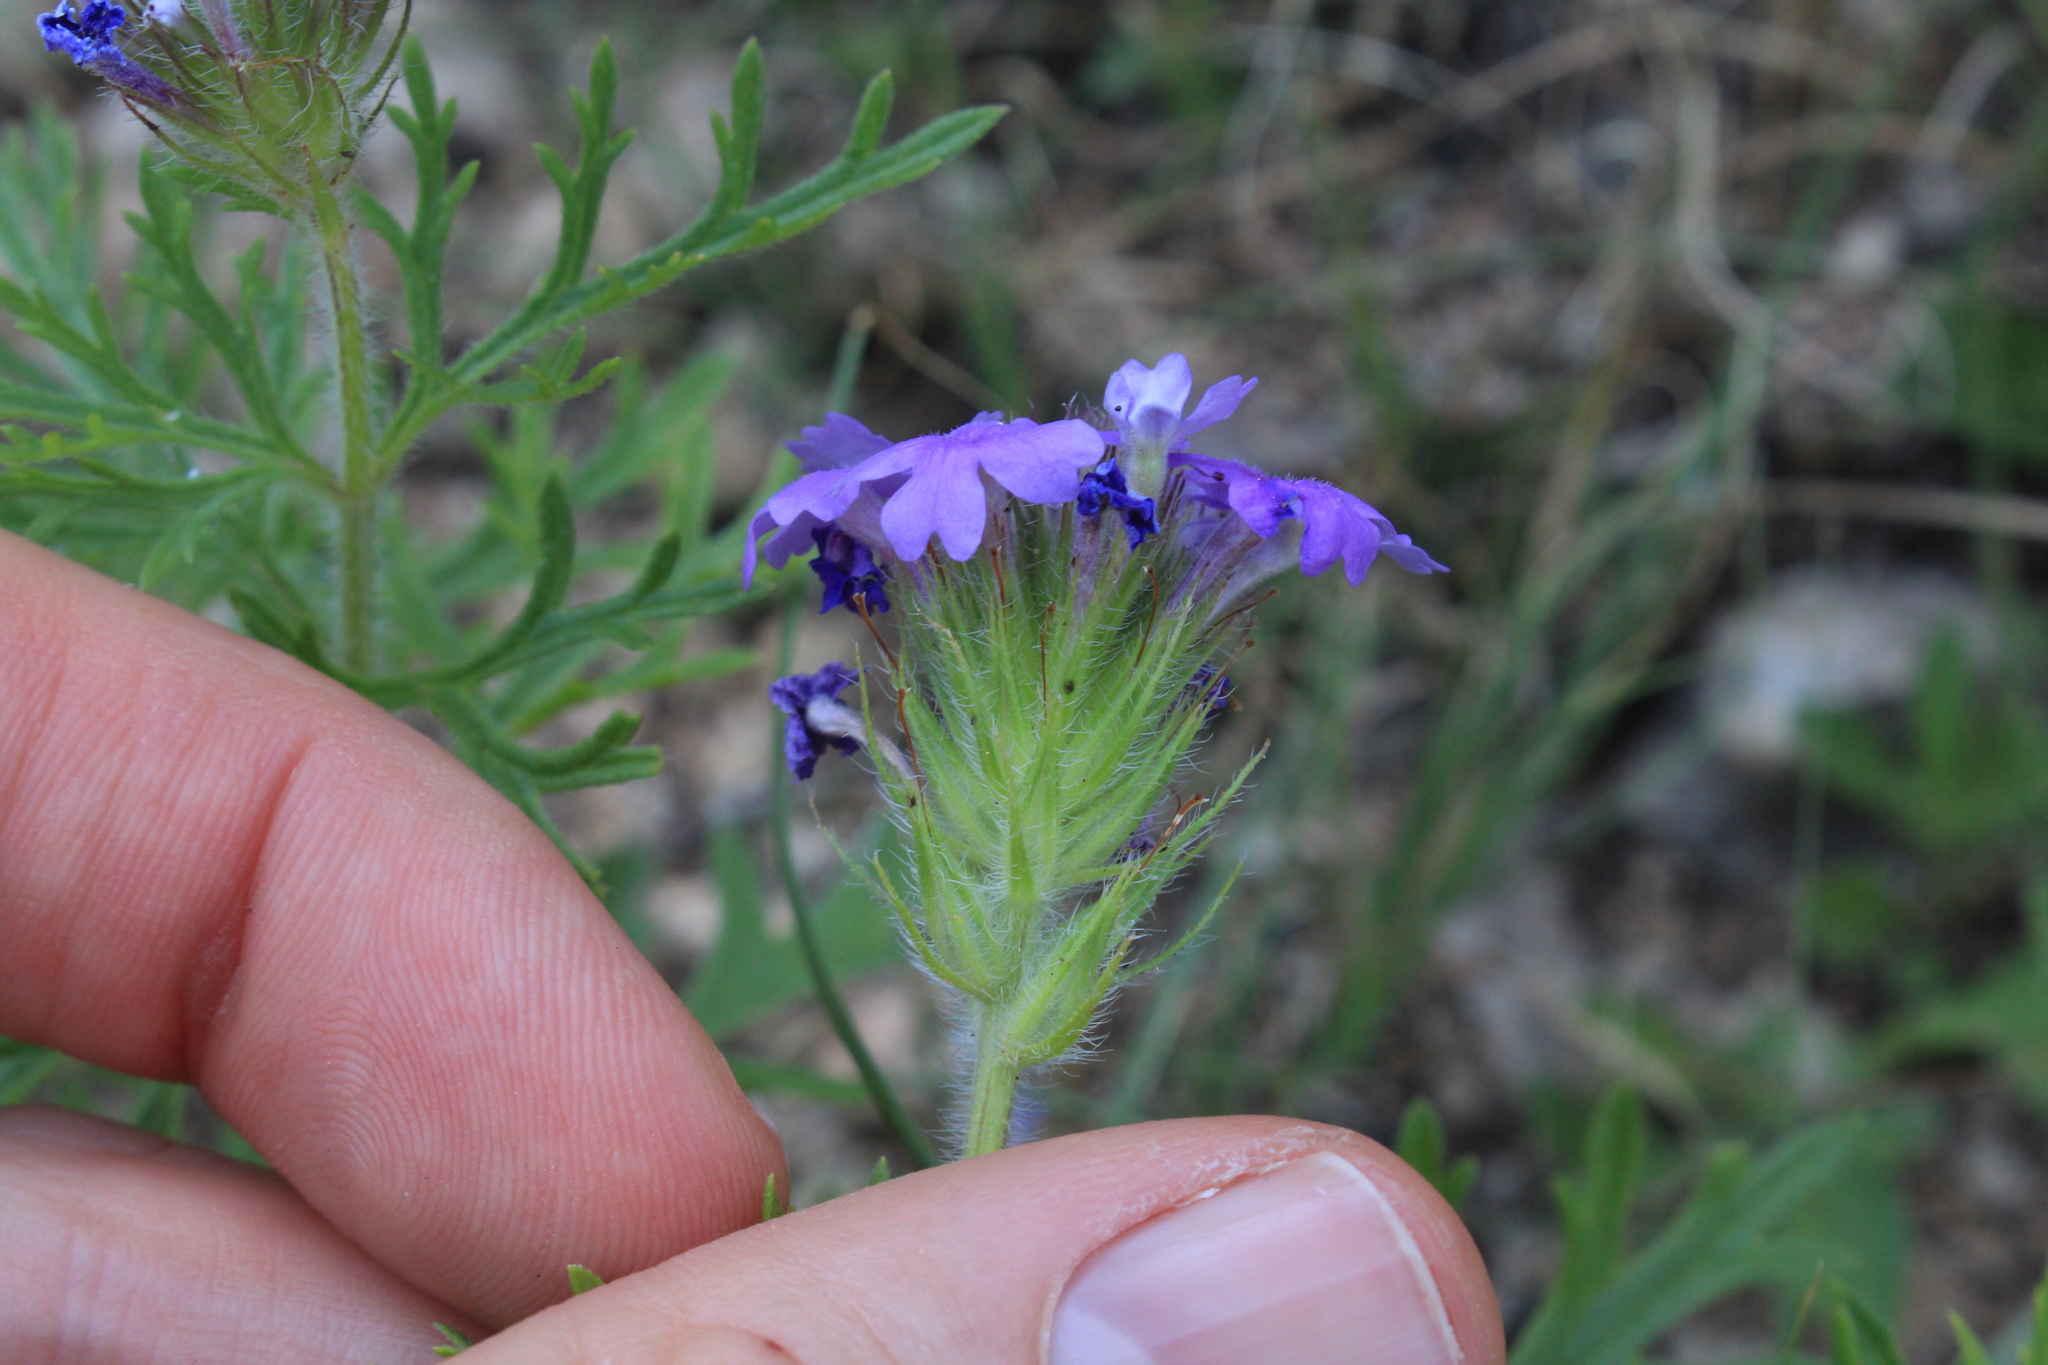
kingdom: Plantae
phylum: Tracheophyta
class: Magnoliopsida
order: Lamiales
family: Verbenaceae
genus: Verbena
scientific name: Verbena bipinnatifida
